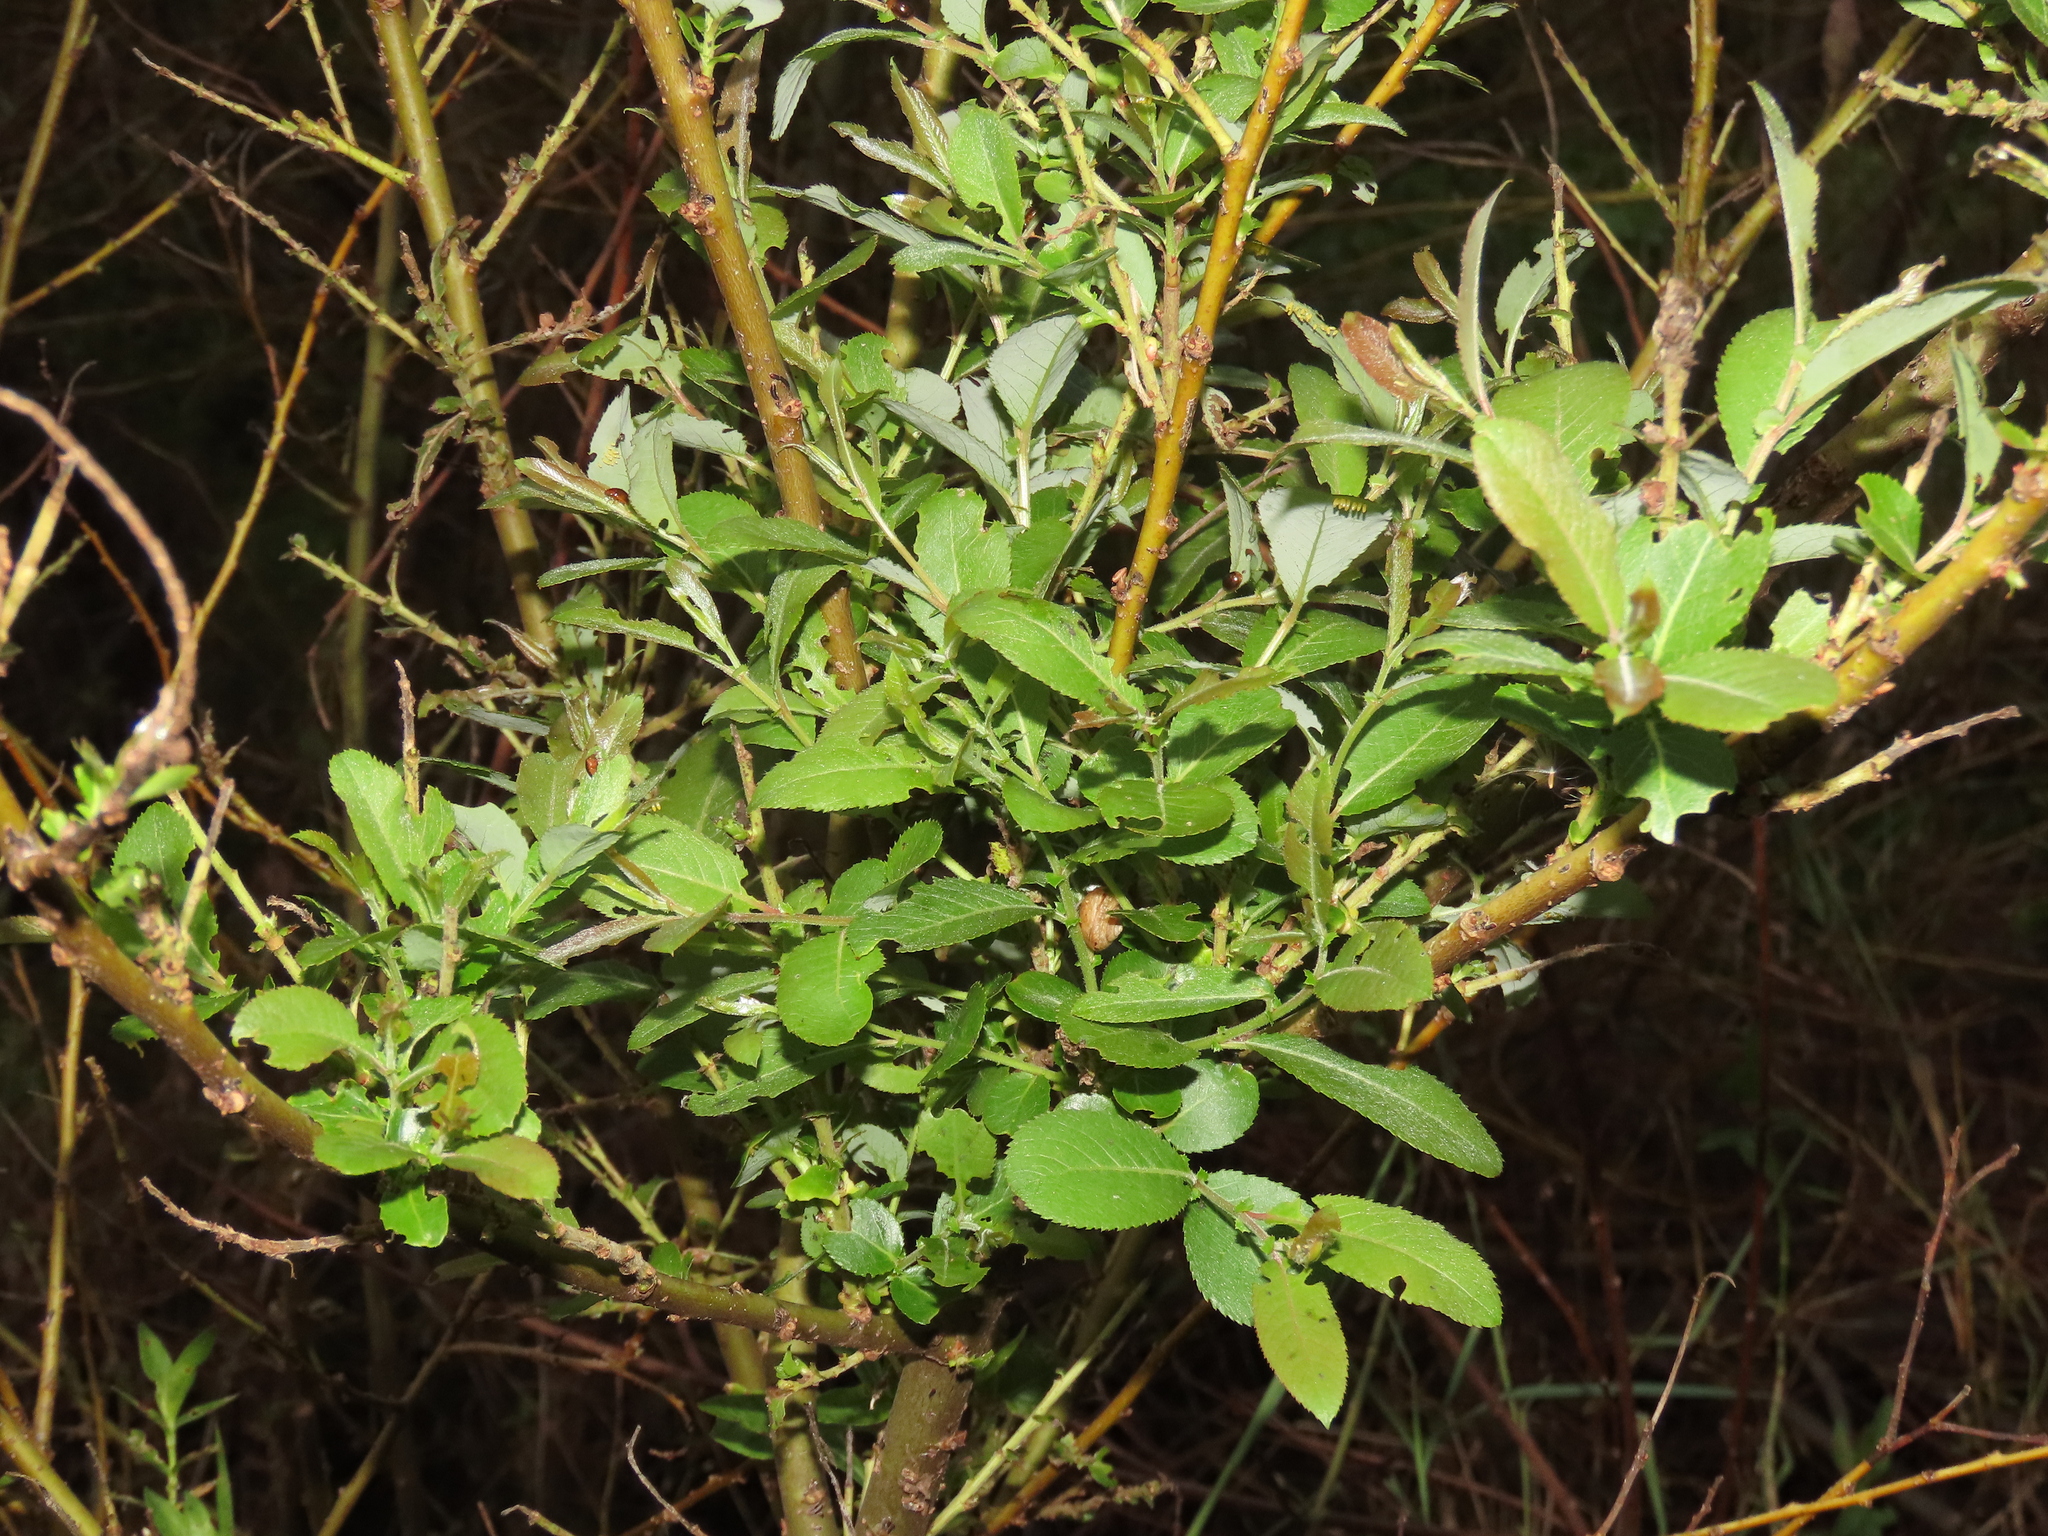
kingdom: Plantae
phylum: Tracheophyta
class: Magnoliopsida
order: Malpighiales
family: Salicaceae
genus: Salix
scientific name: Salix mesnyi
